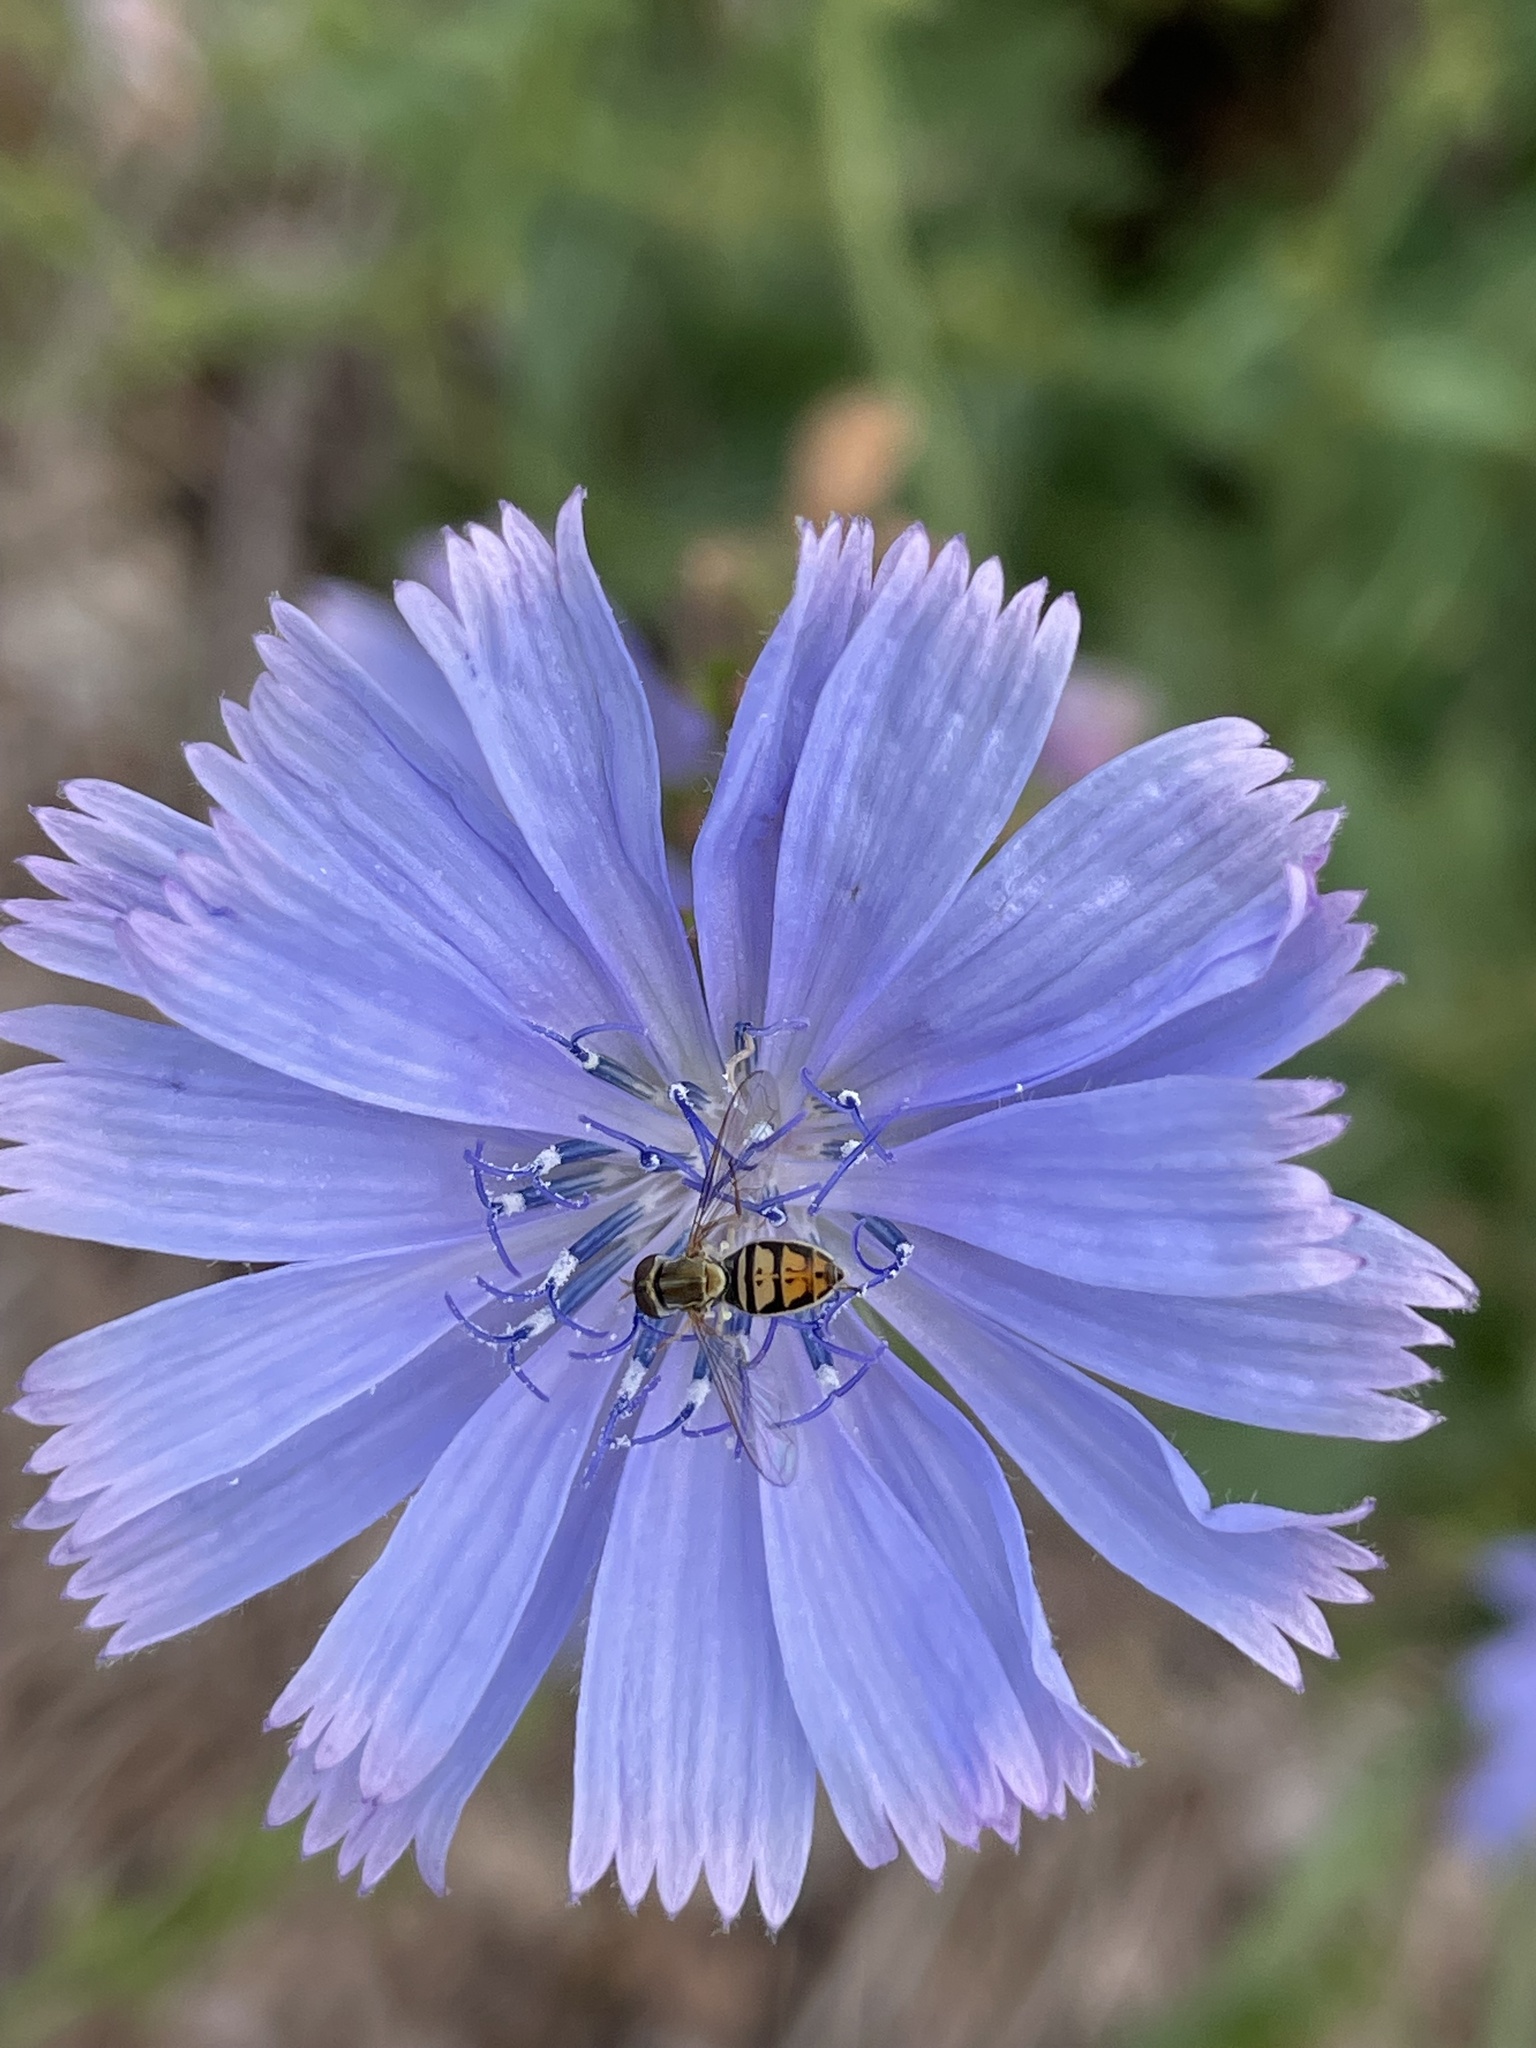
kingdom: Plantae
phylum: Tracheophyta
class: Magnoliopsida
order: Asterales
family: Asteraceae
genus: Cichorium
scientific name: Cichorium intybus
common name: Chicory
